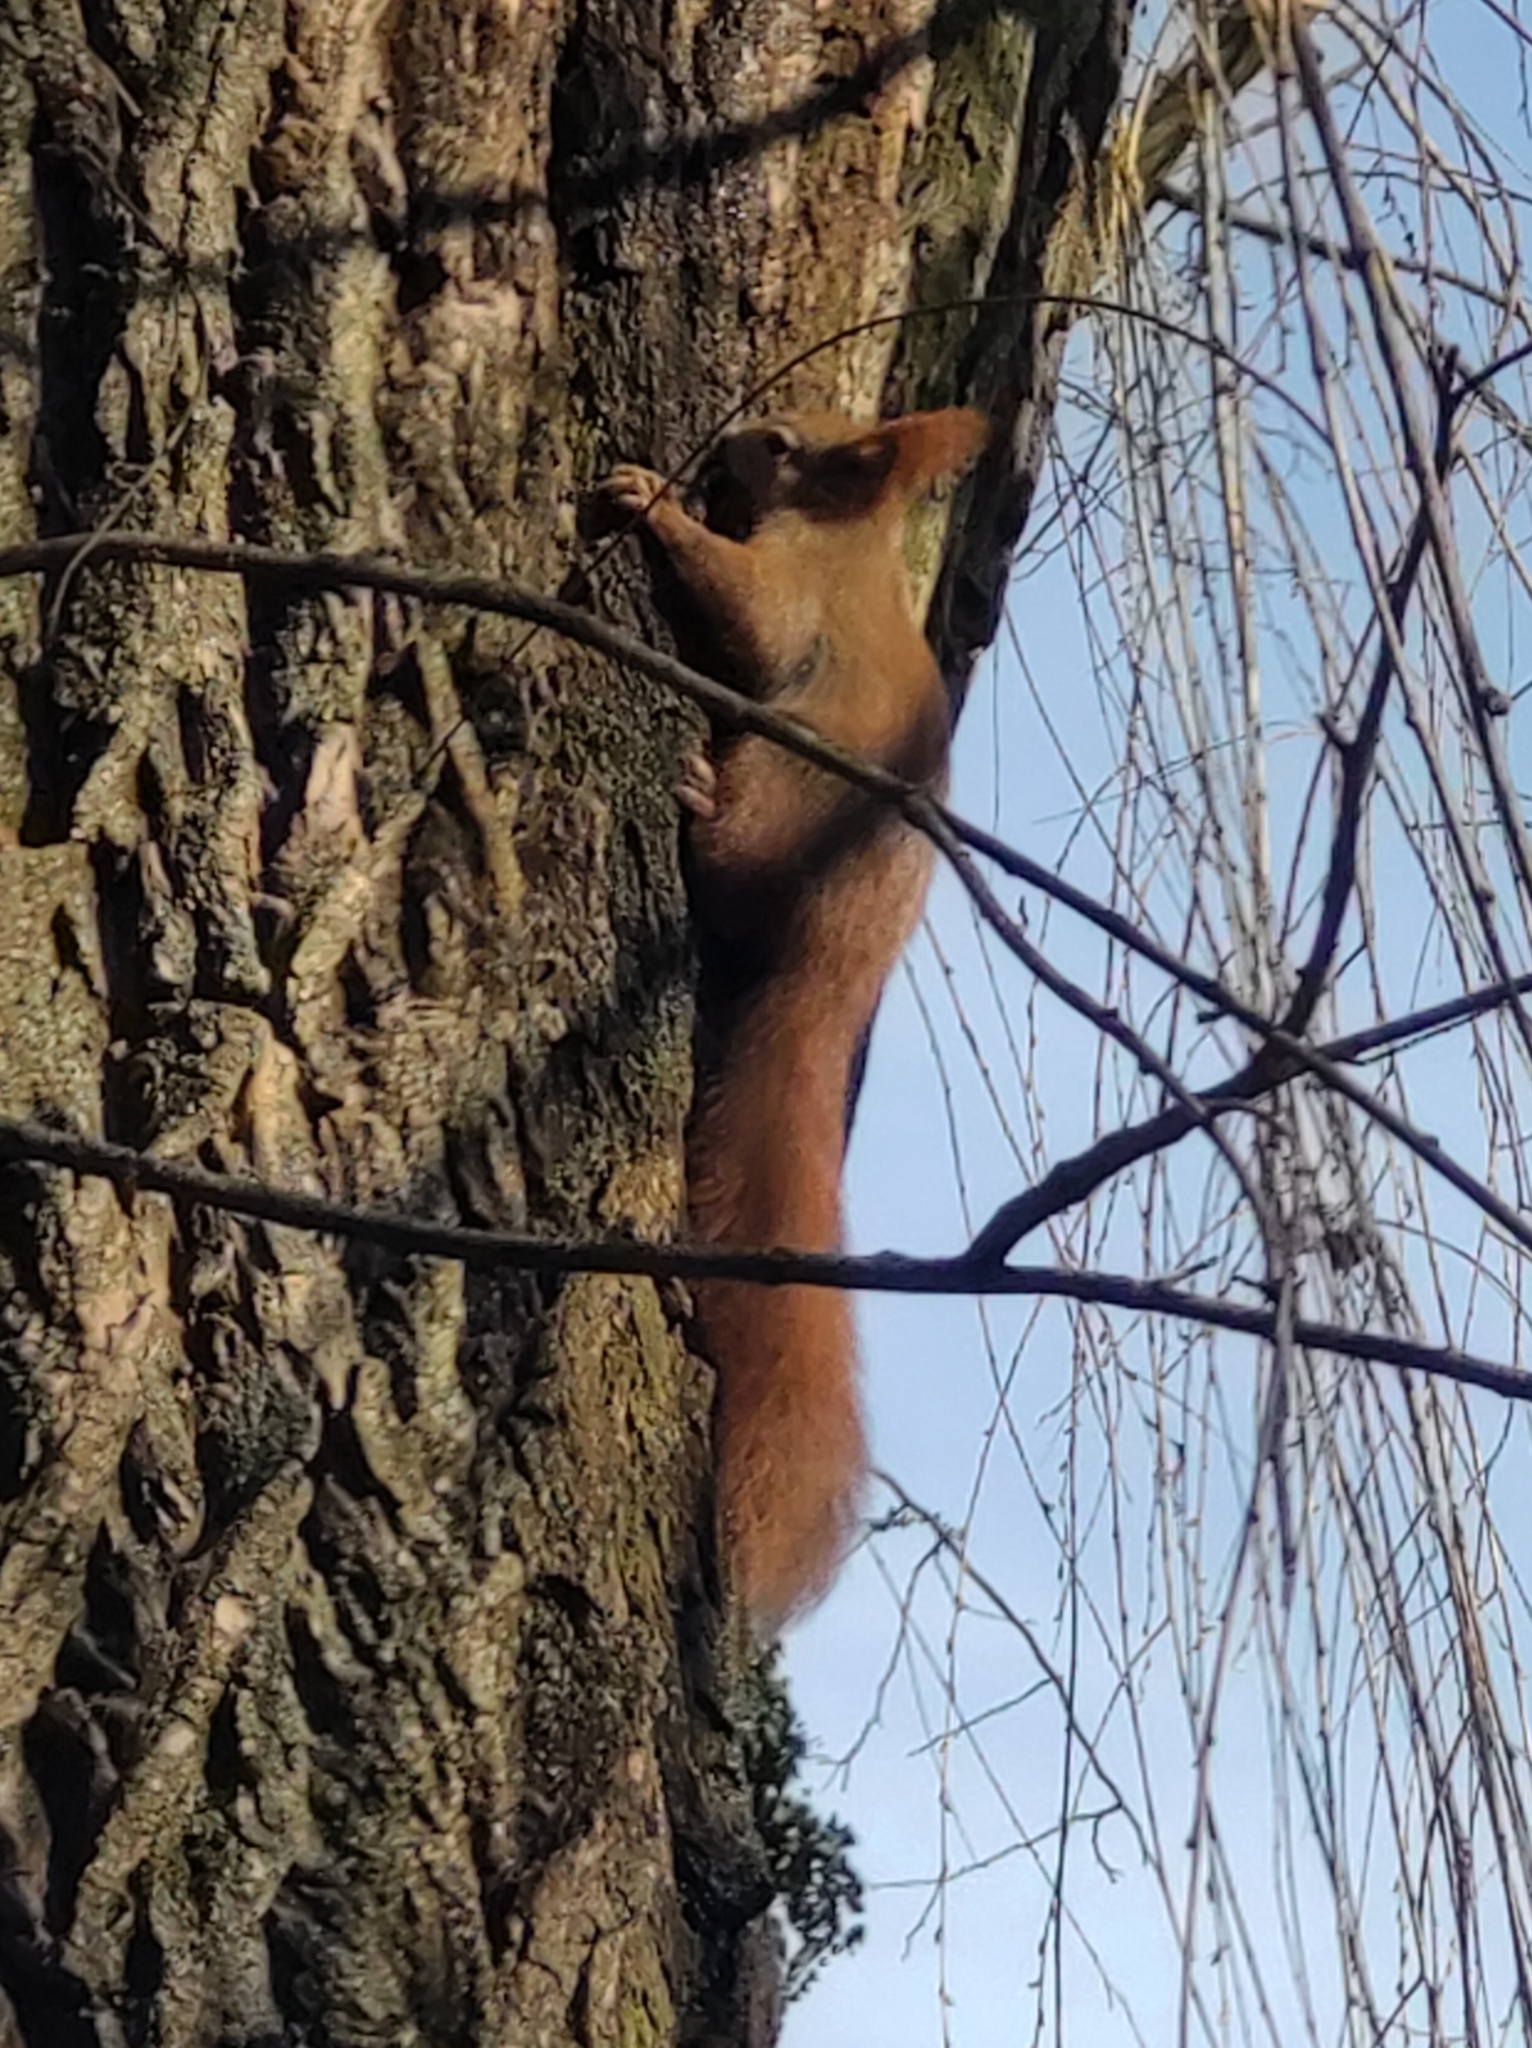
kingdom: Animalia
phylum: Chordata
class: Mammalia
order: Rodentia
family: Sciuridae
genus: Sciurus
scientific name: Sciurus vulgaris
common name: Eurasian red squirrel
